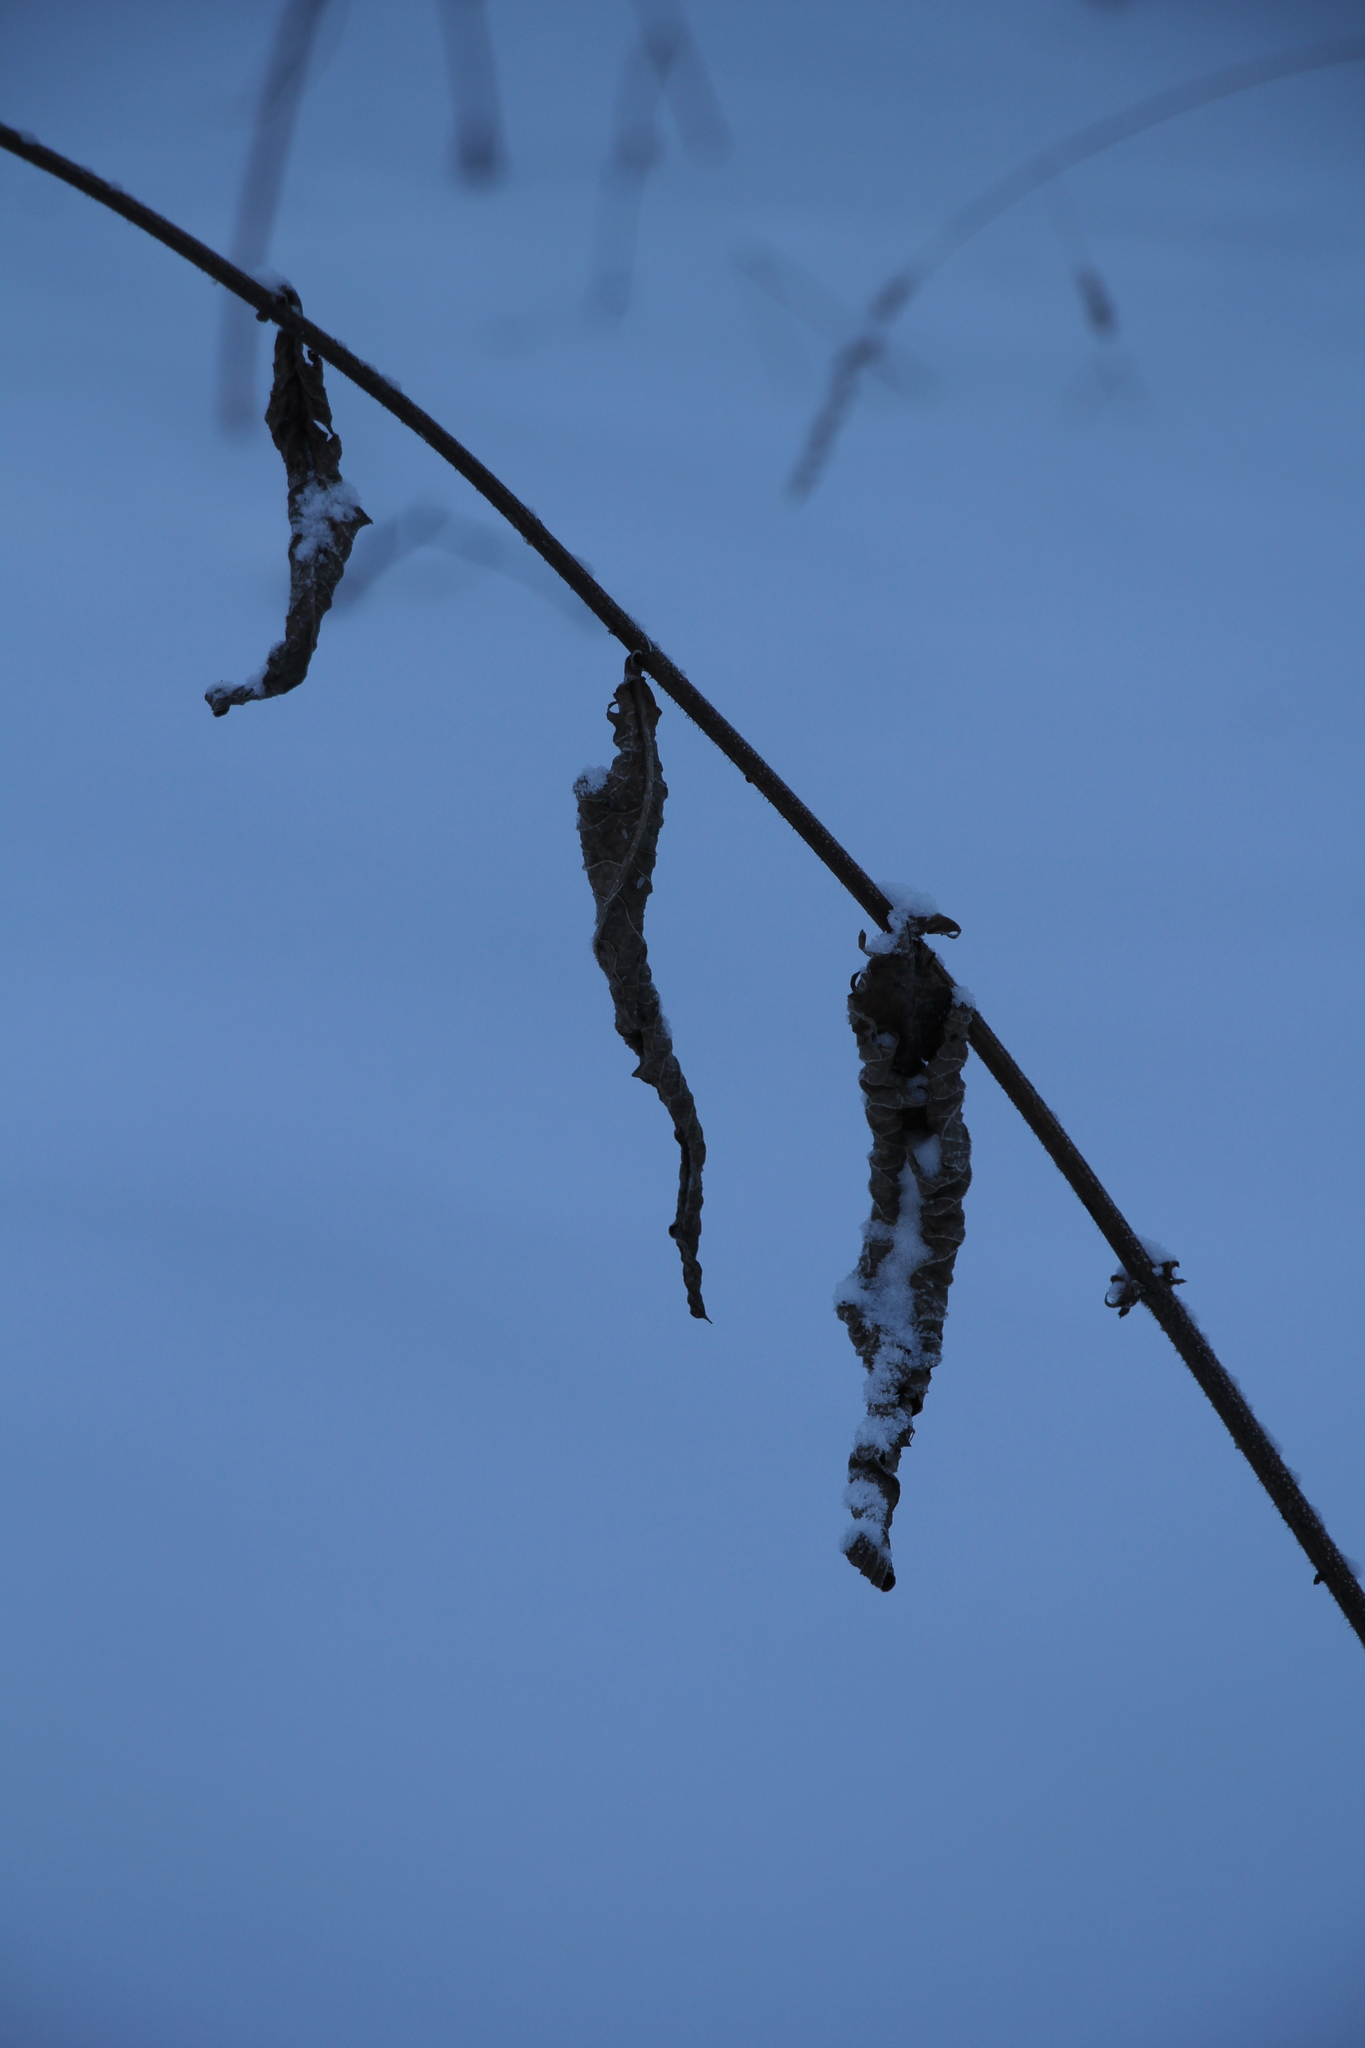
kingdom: Plantae
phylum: Tracheophyta
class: Magnoliopsida
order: Asterales
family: Asteraceae
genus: Crepis
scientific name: Crepis sibirica
